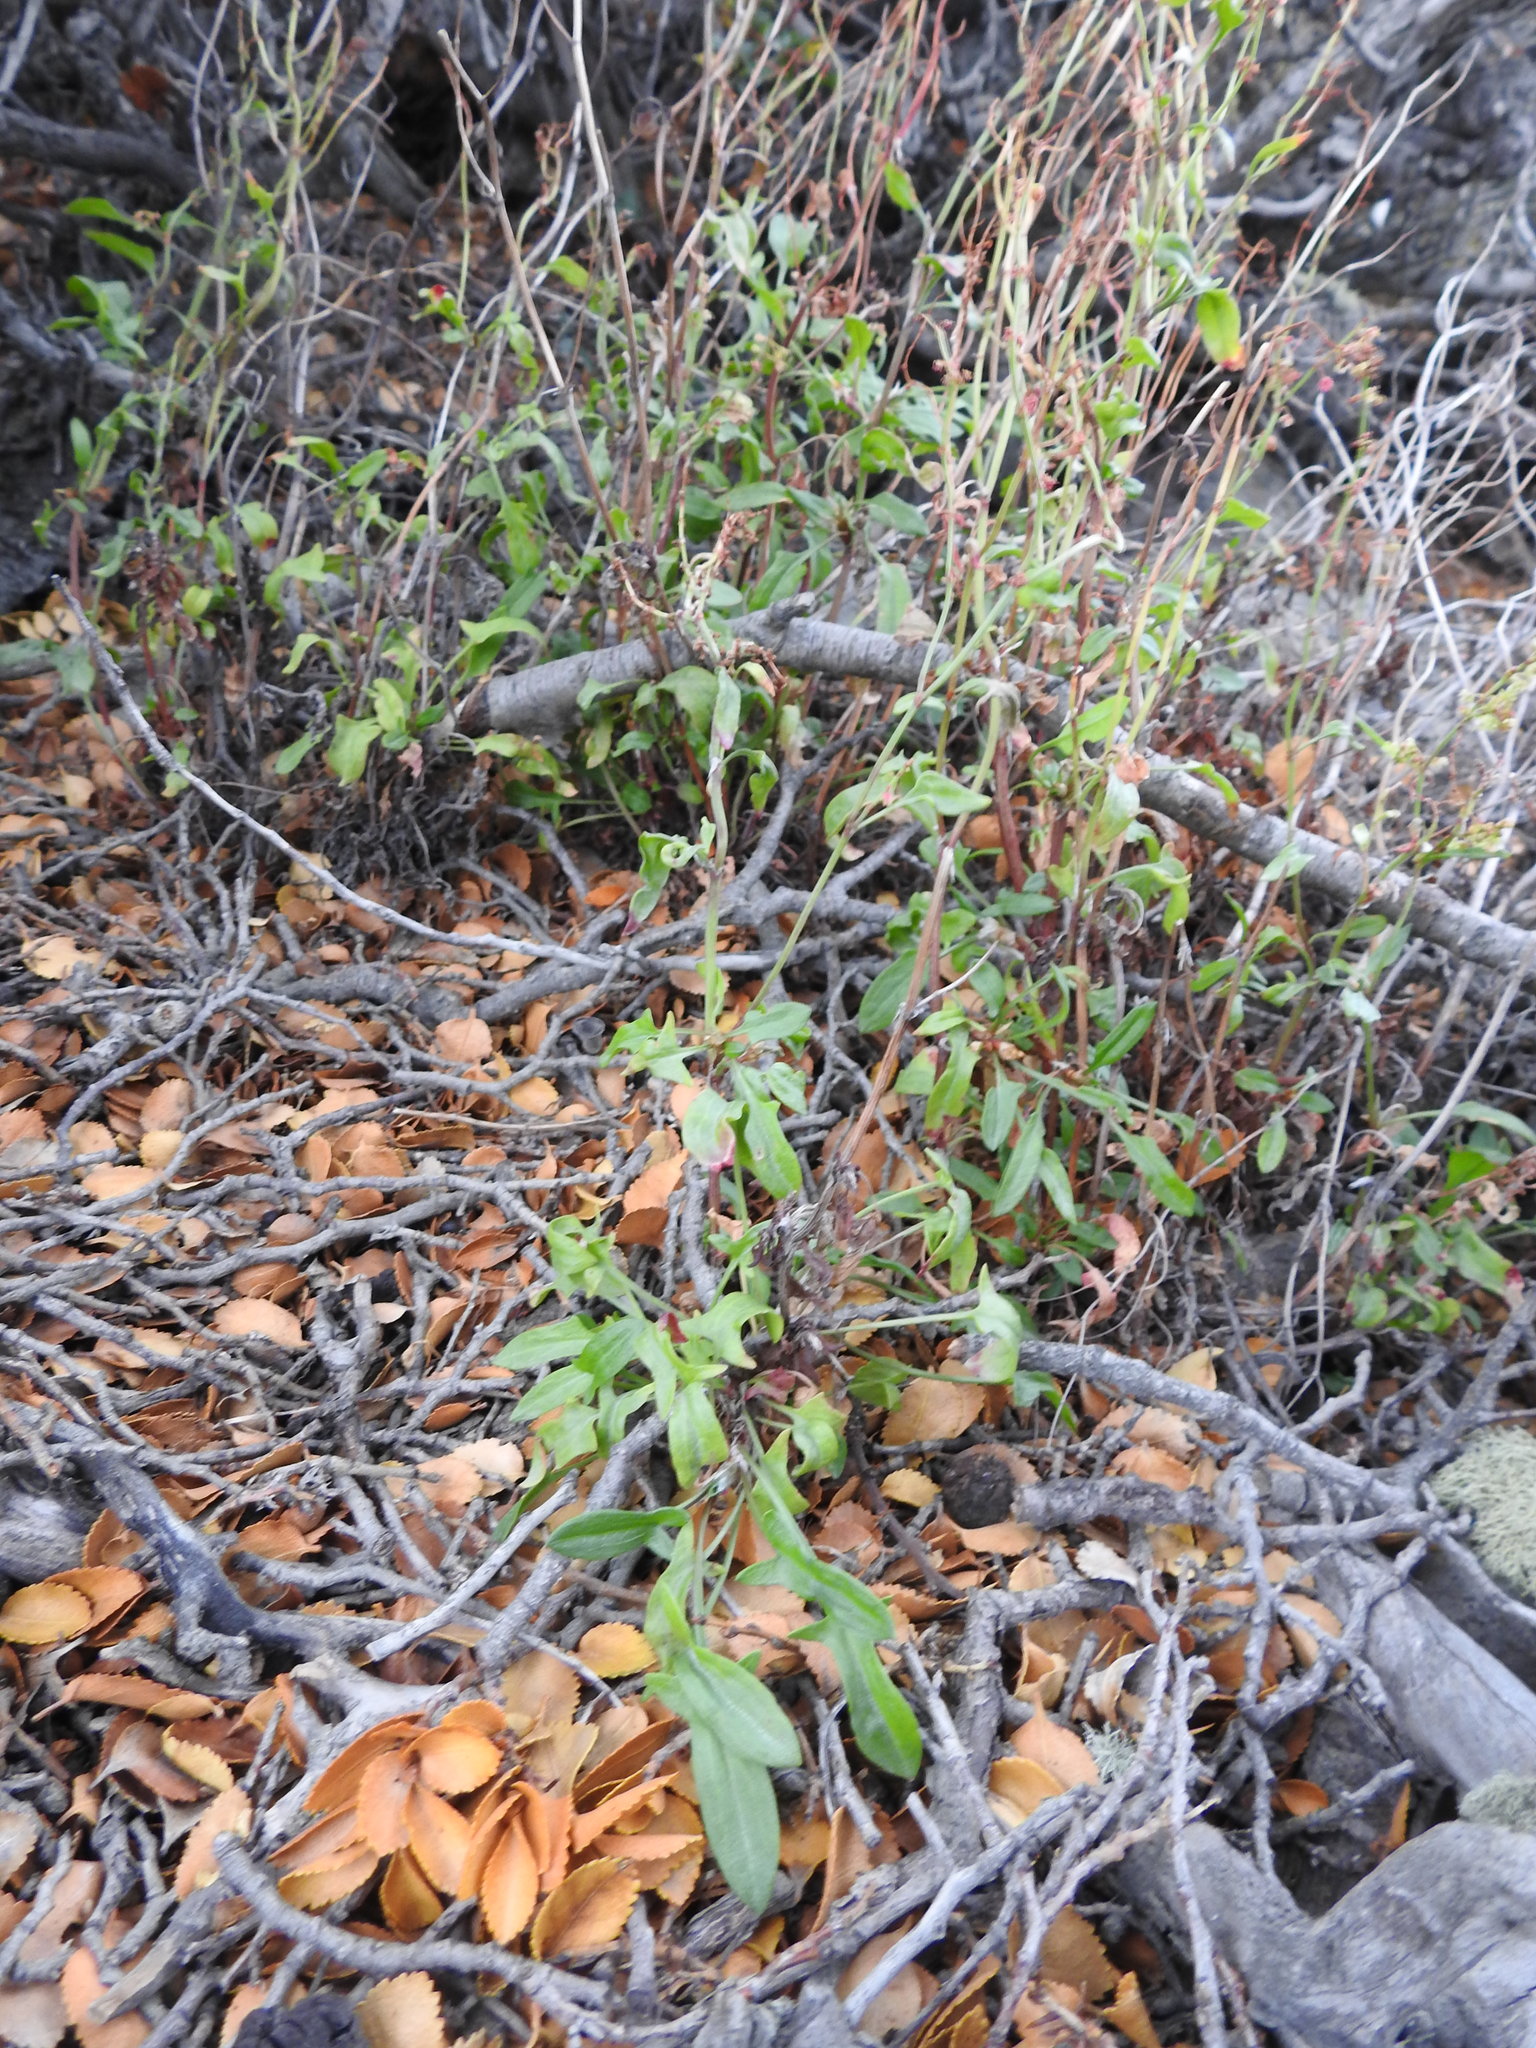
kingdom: Plantae
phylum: Tracheophyta
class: Magnoliopsida
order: Gentianales
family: Rubiaceae
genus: Galium
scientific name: Galium aparine
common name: Cleavers
